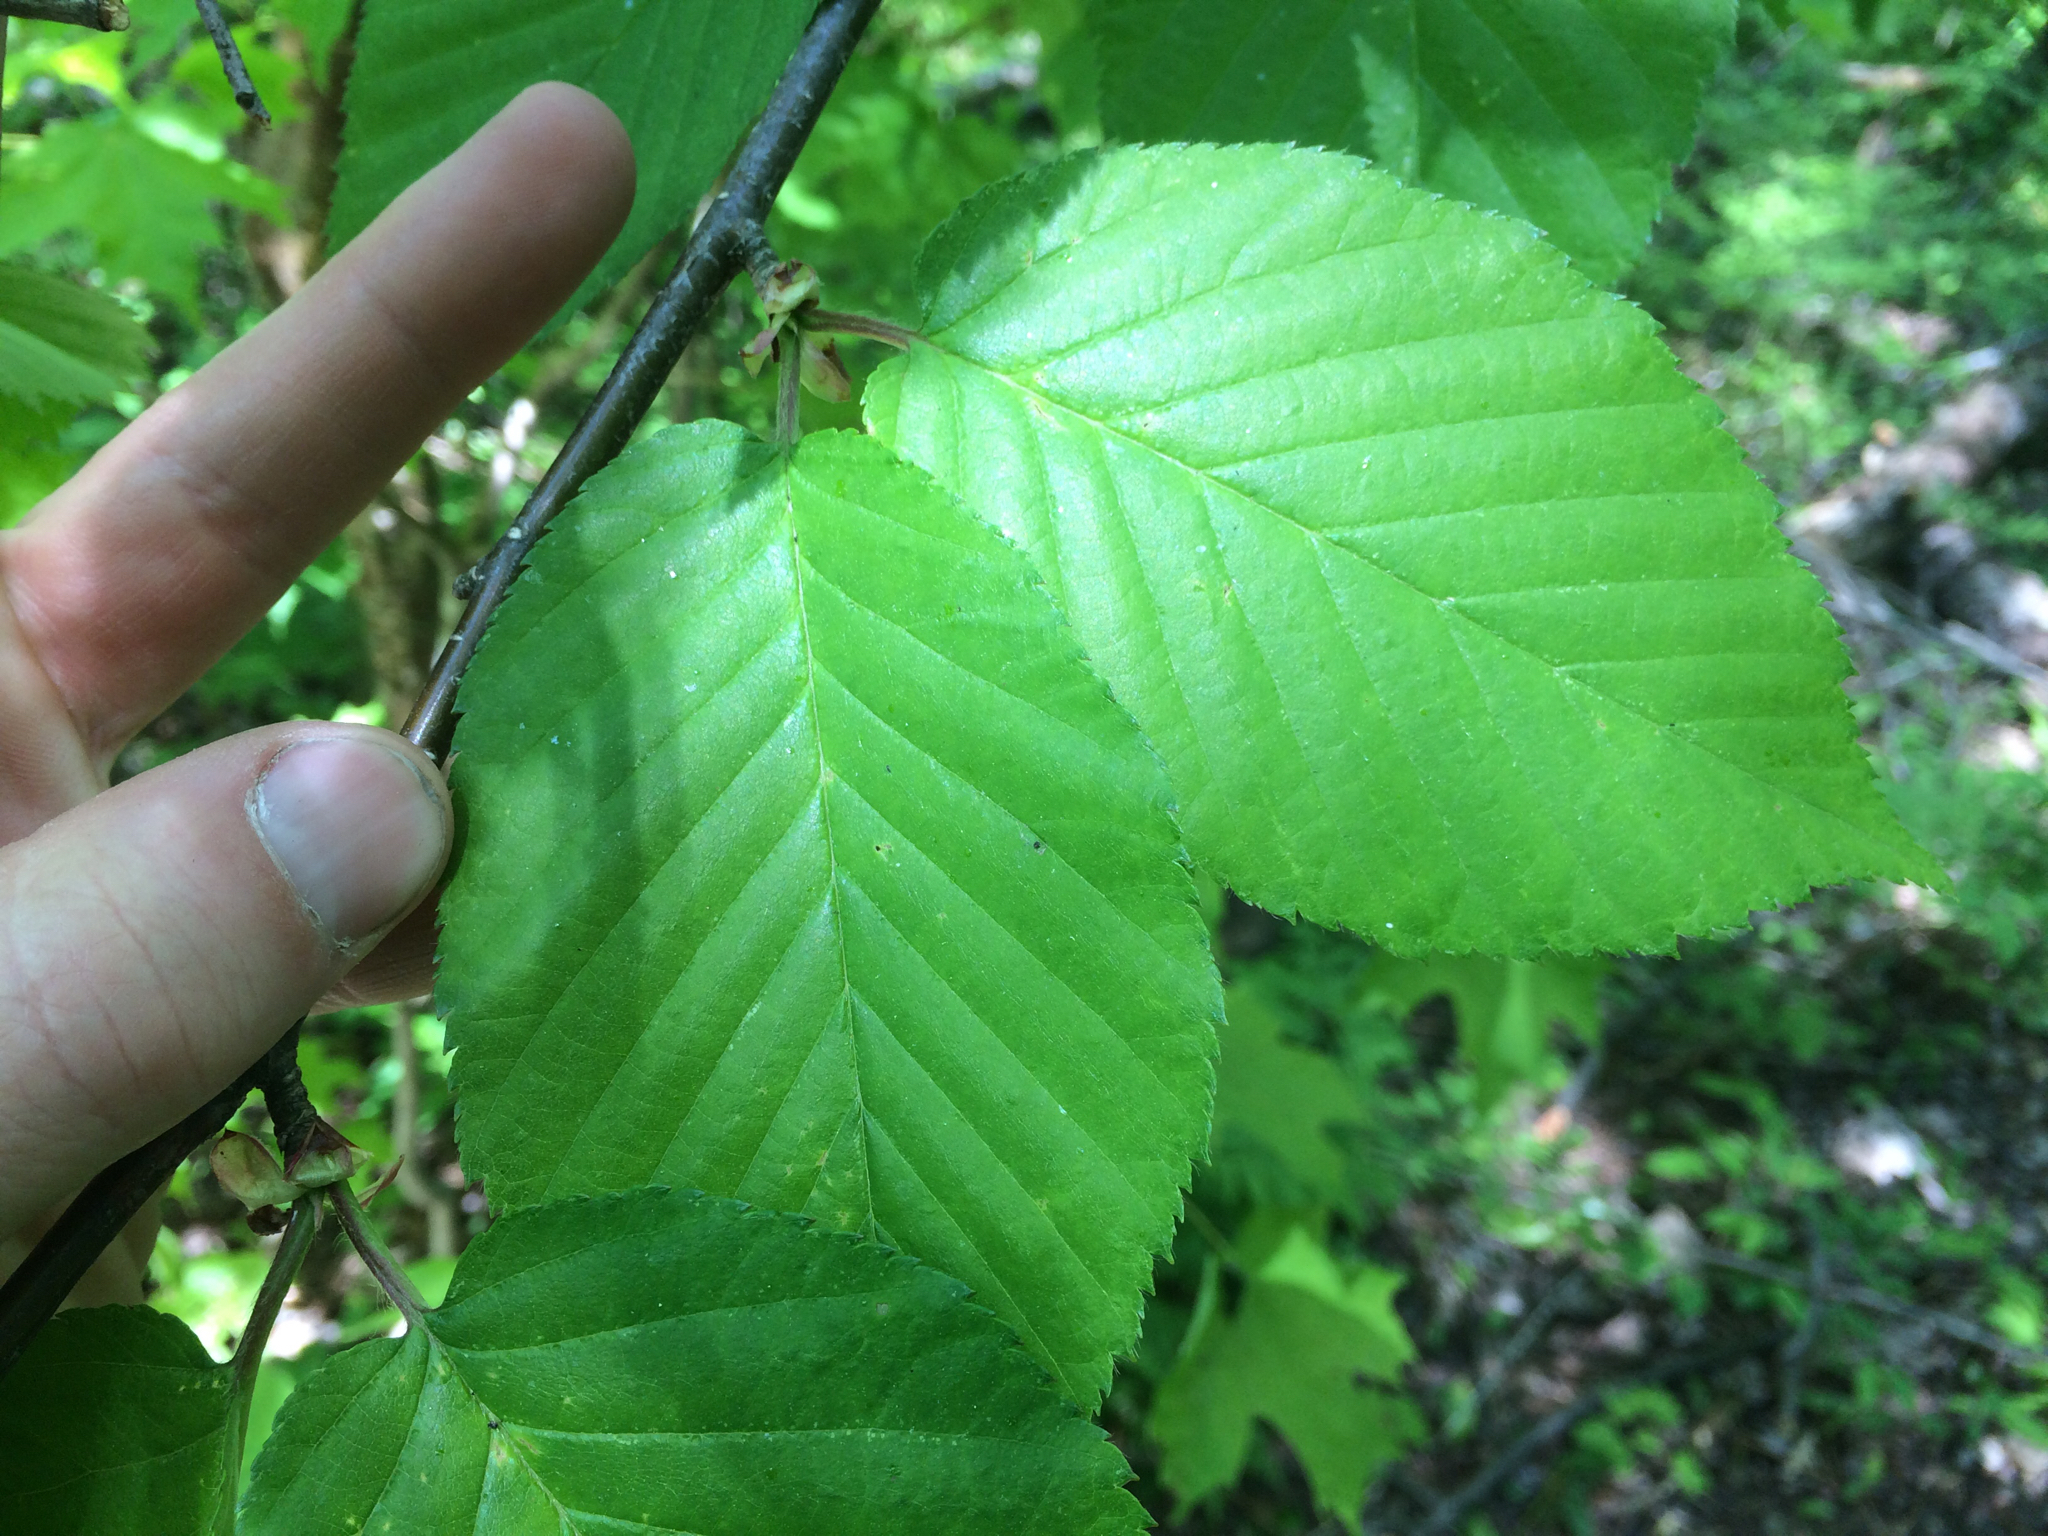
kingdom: Plantae
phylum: Tracheophyta
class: Magnoliopsida
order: Fagales
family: Betulaceae
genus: Betula
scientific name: Betula alleghaniensis
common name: Yellow birch
